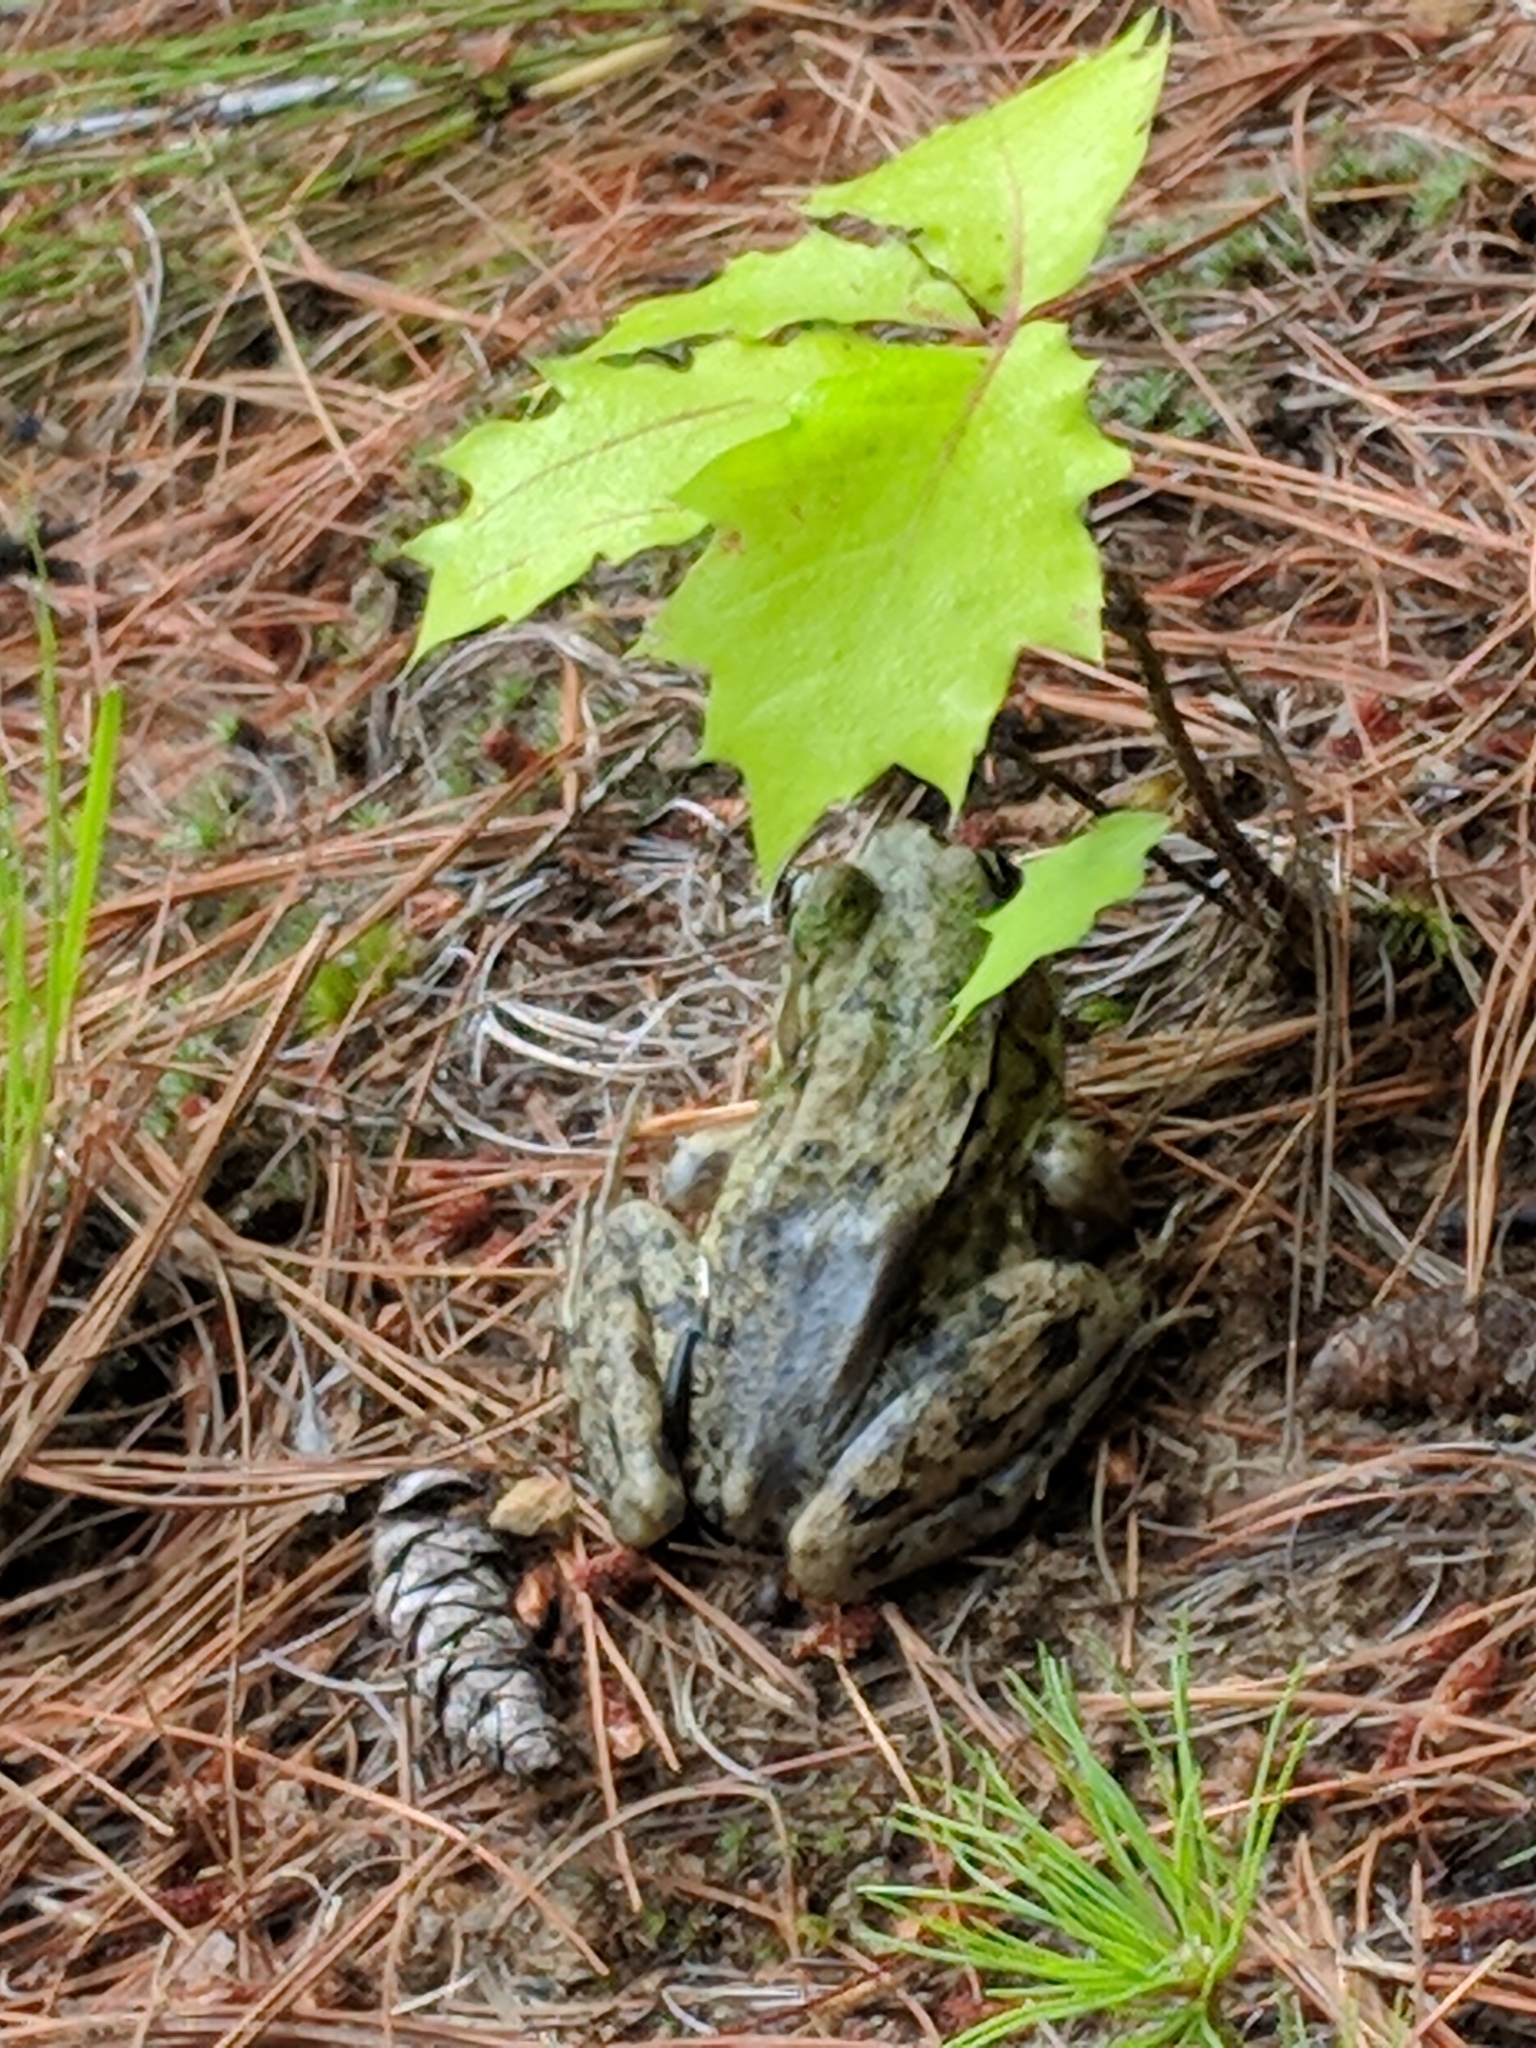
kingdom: Animalia
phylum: Chordata
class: Amphibia
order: Anura
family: Ranidae
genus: Lithobates
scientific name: Lithobates clamitans
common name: Green frog
